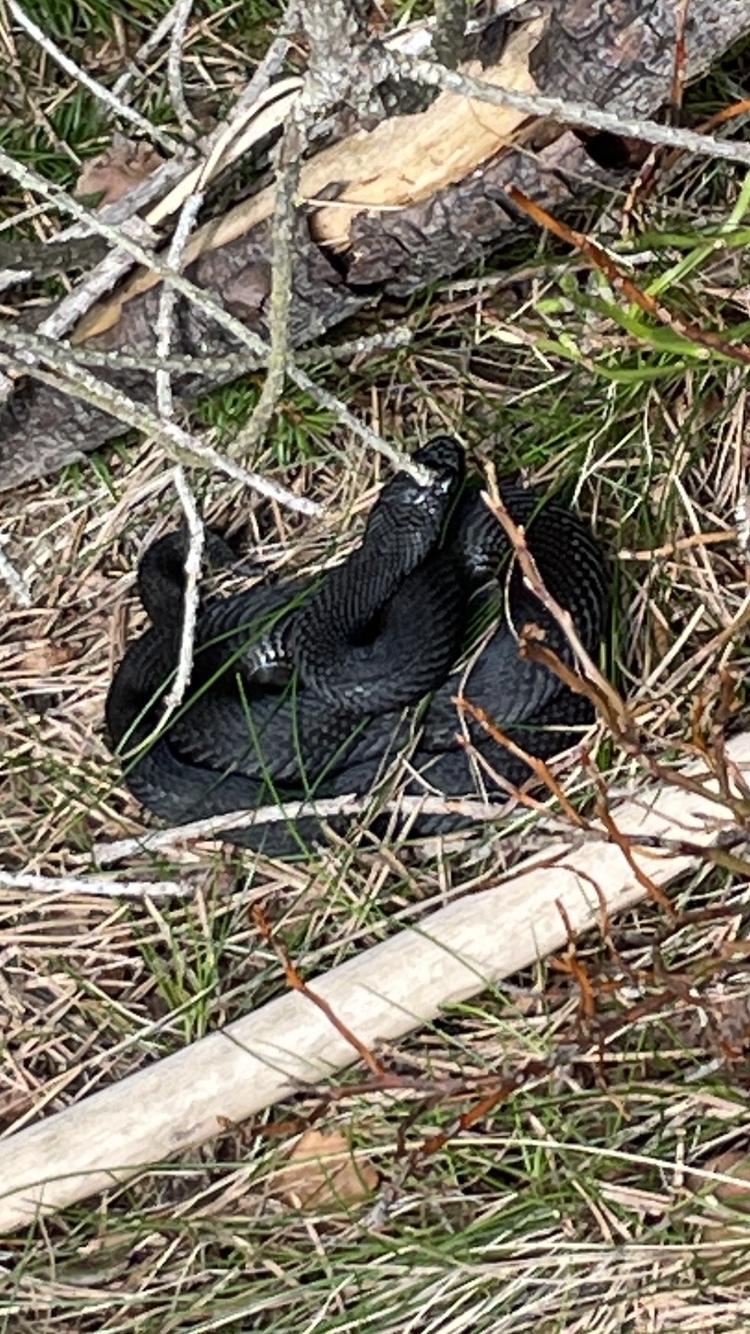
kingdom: Animalia
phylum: Chordata
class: Squamata
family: Viperidae
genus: Vipera
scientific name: Vipera berus
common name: Adder
